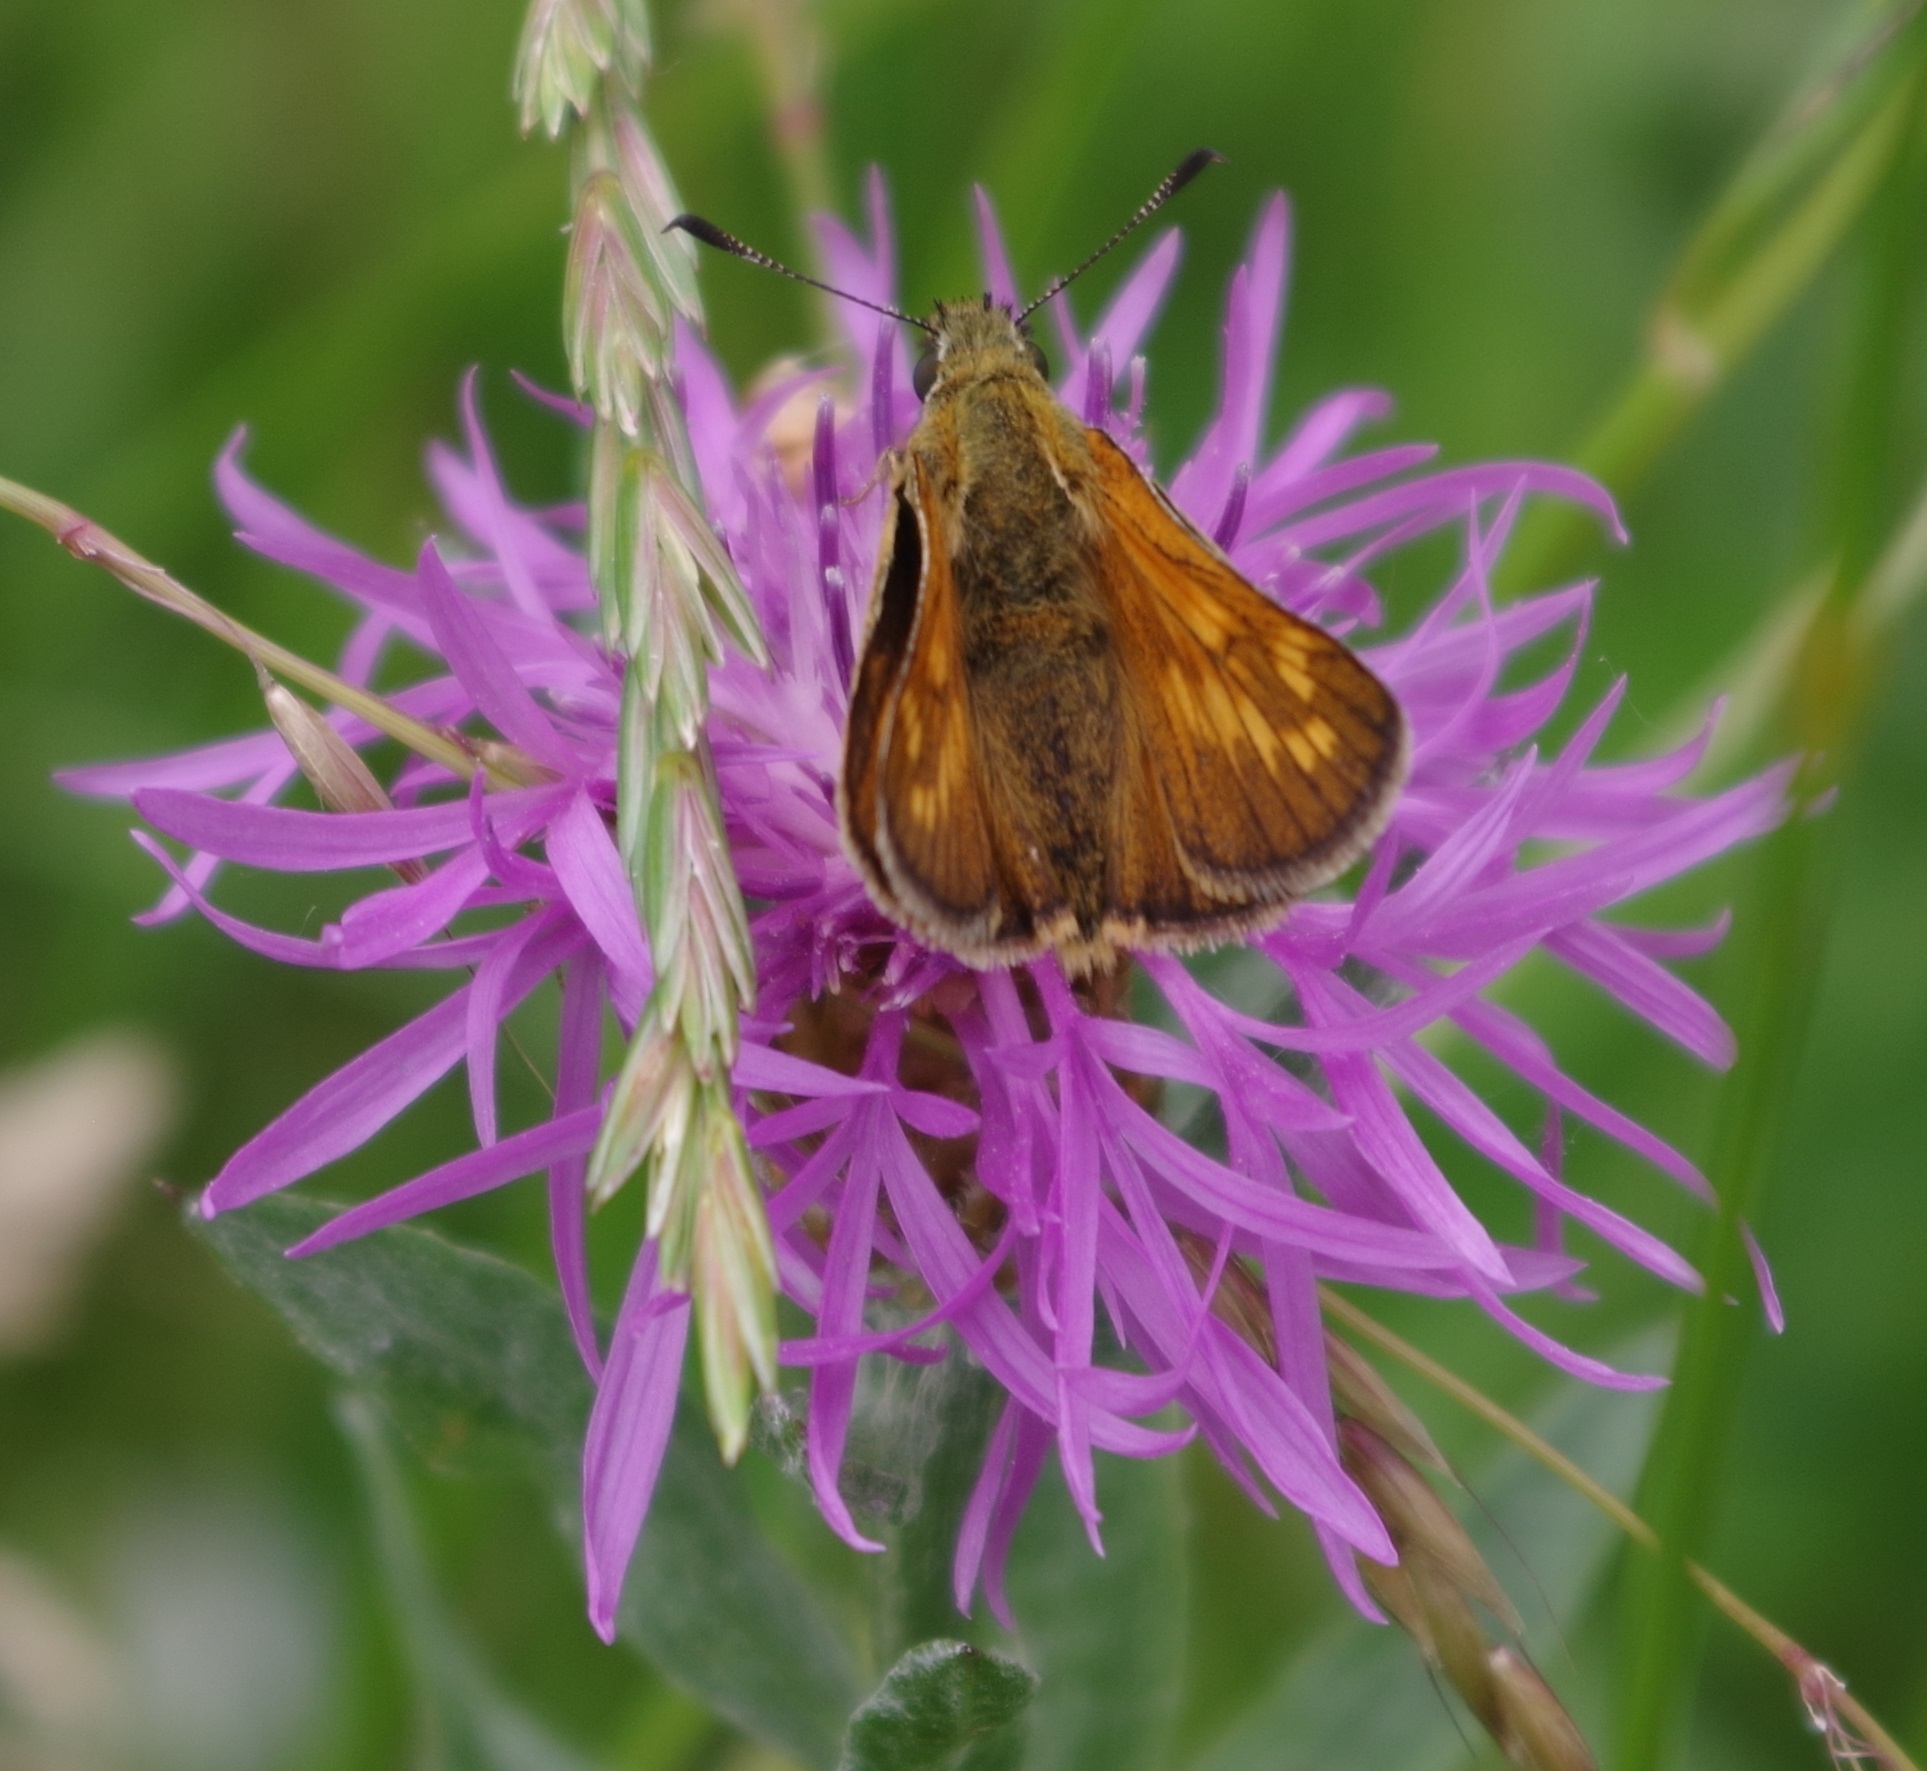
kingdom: Animalia
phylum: Arthropoda
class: Insecta
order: Lepidoptera
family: Hesperiidae
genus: Ochlodes
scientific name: Ochlodes venata
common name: Large skipper
